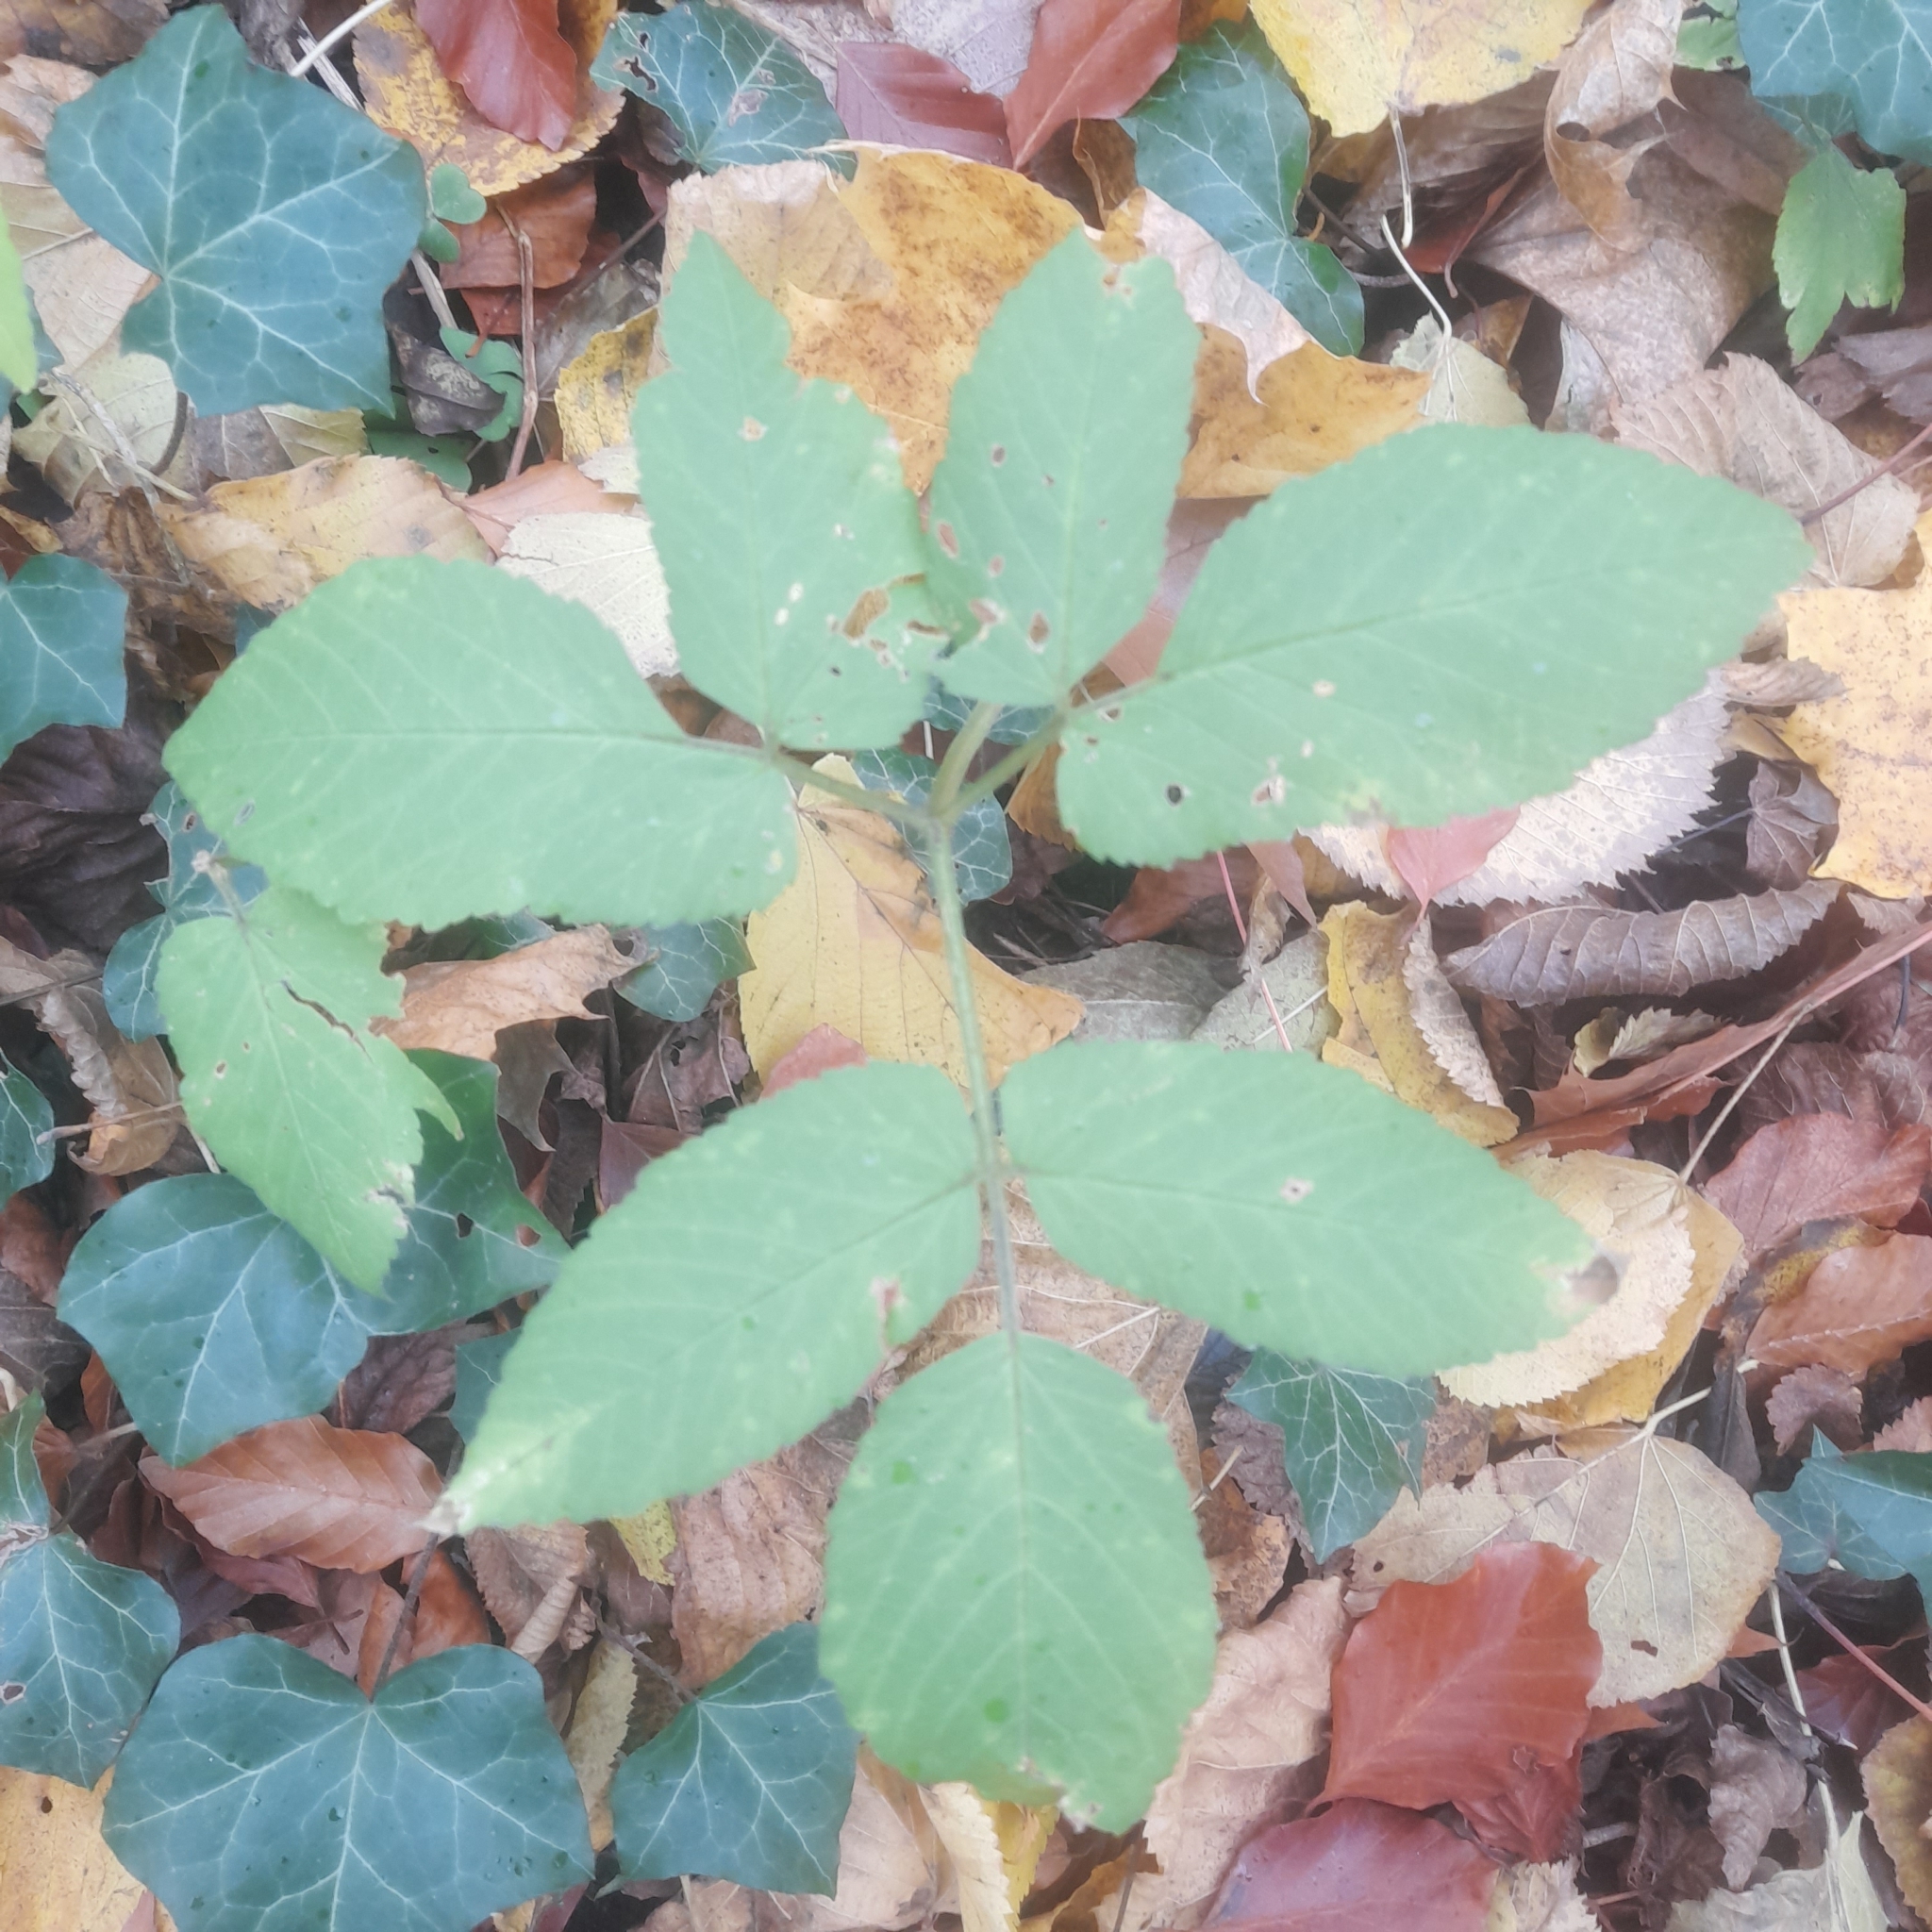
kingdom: Plantae
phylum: Tracheophyta
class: Magnoliopsida
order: Apiales
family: Apiaceae
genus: Aegopodium
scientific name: Aegopodium podagraria
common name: Ground-elder
